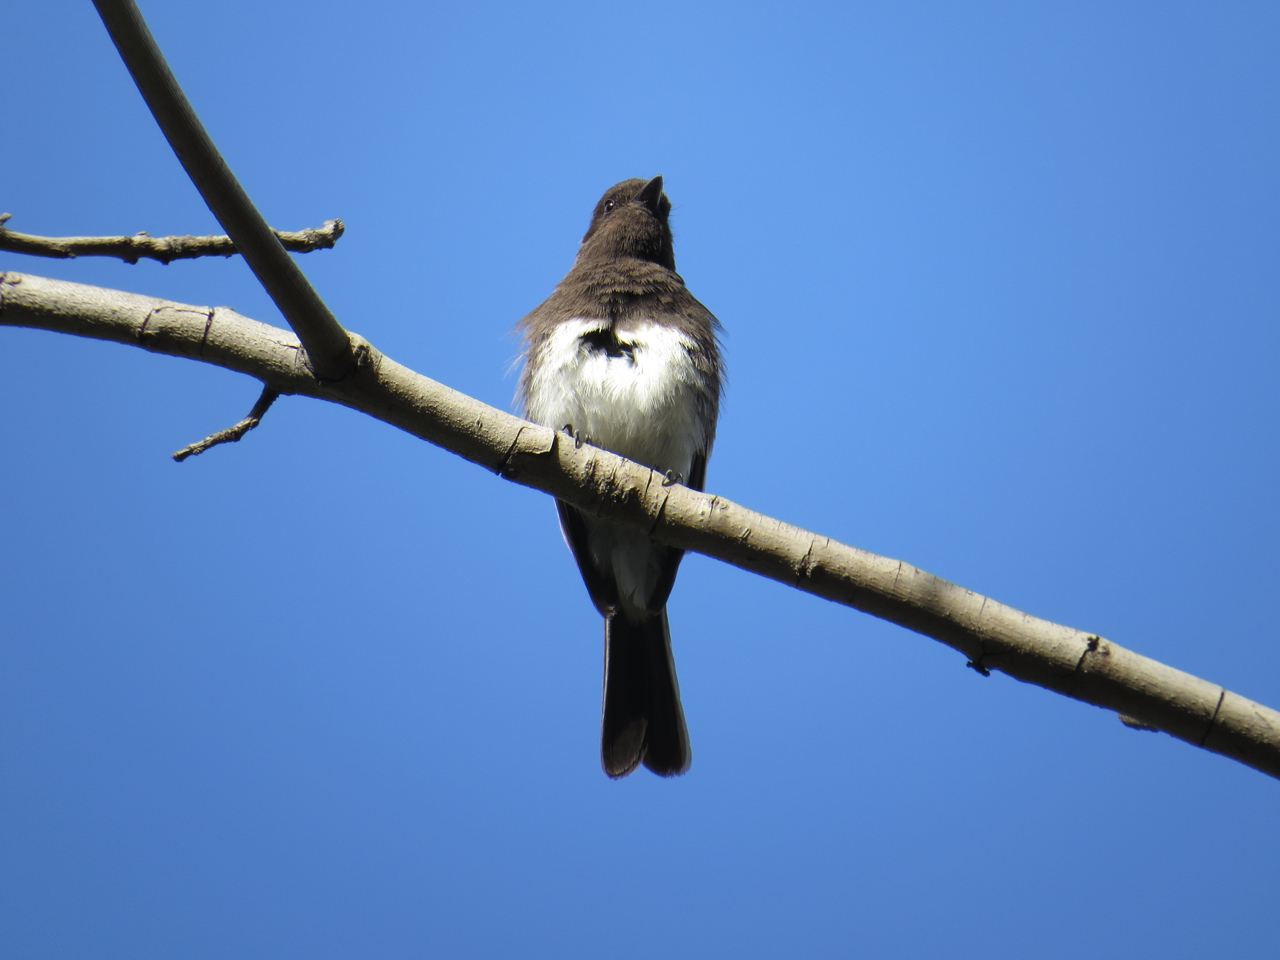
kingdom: Animalia
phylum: Chordata
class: Aves
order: Passeriformes
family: Tyrannidae
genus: Sayornis
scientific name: Sayornis nigricans
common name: Black phoebe
